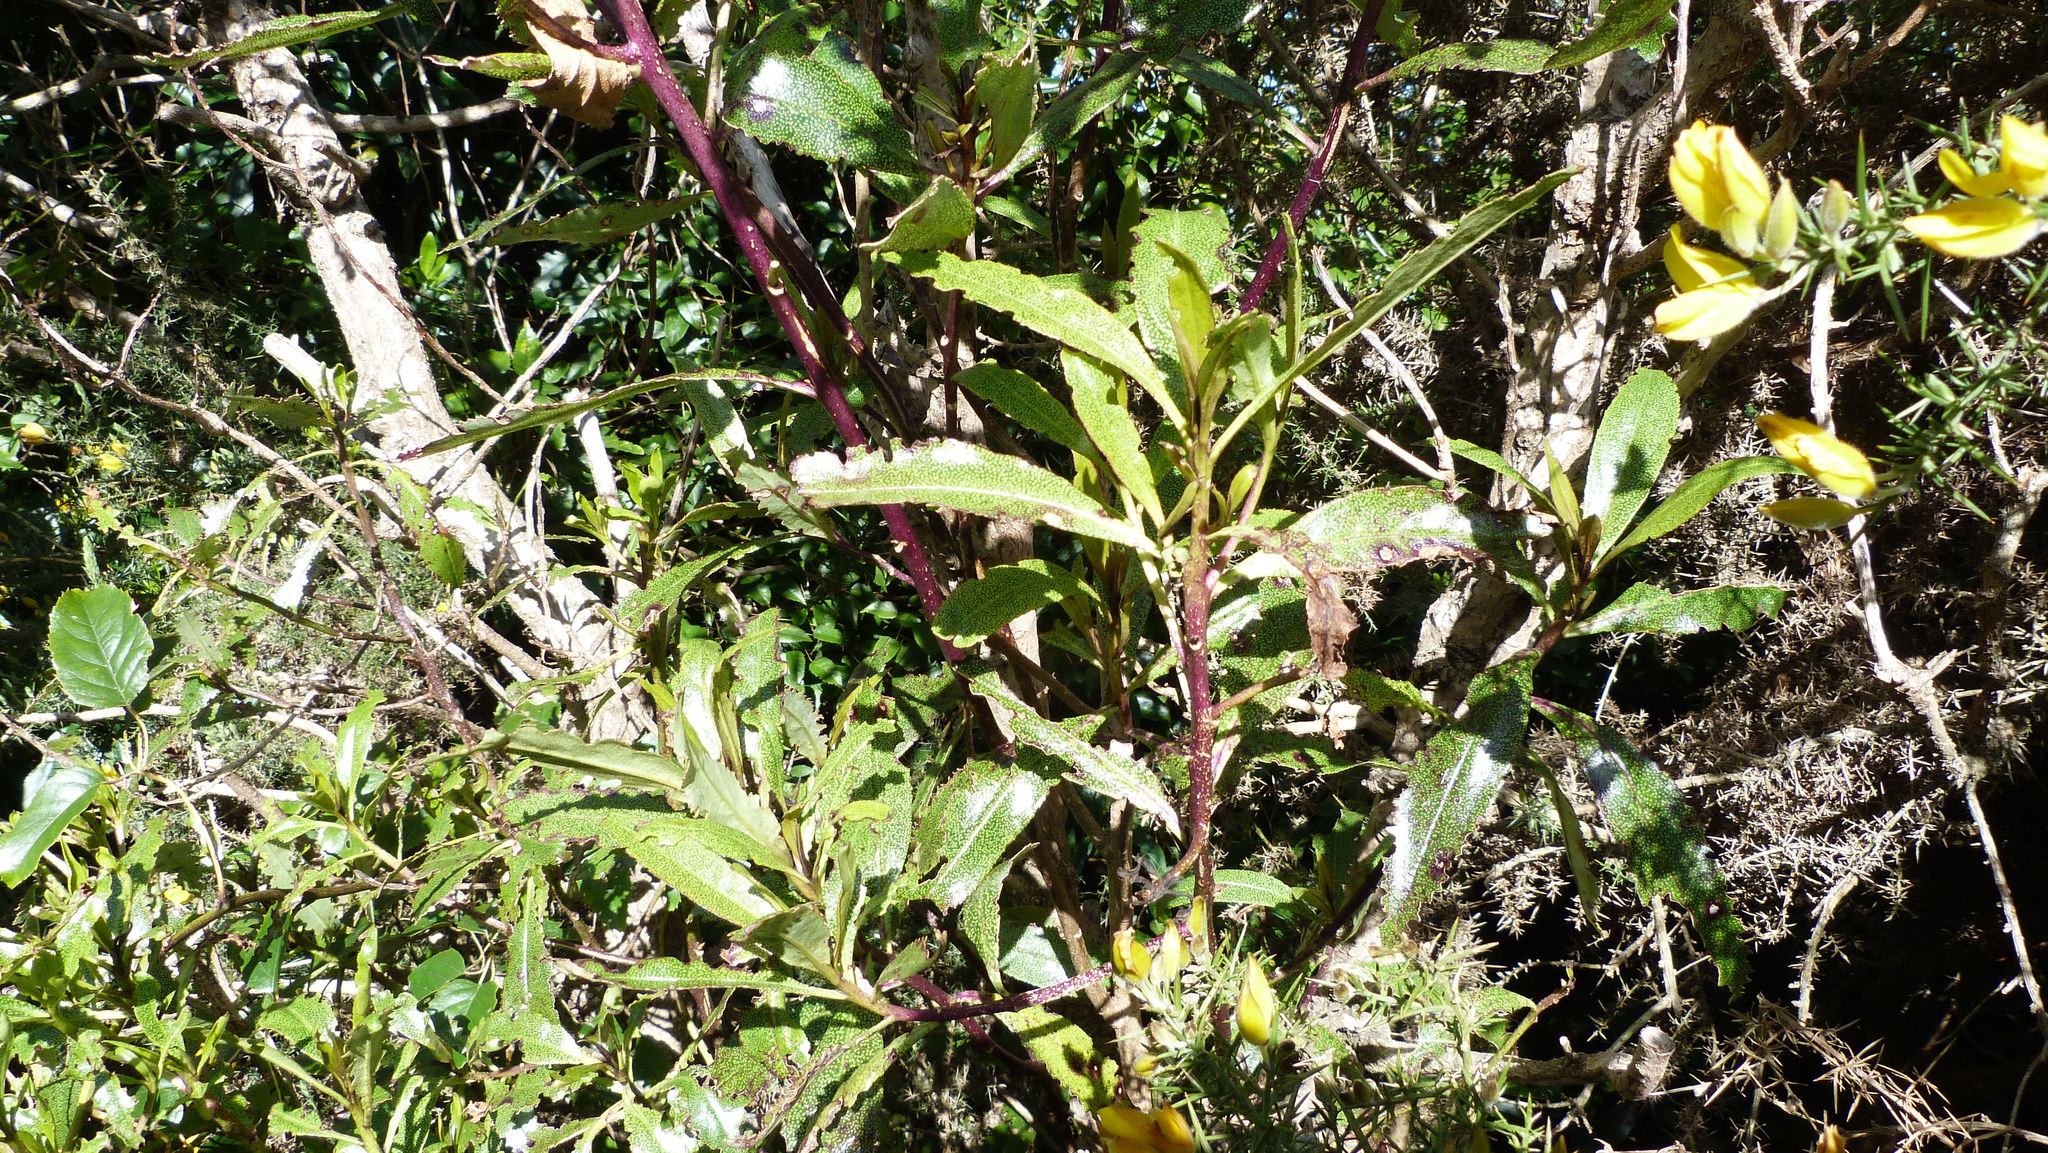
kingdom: Plantae
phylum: Tracheophyta
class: Magnoliopsida
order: Lamiales
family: Scrophulariaceae
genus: Myoporum
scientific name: Myoporum laetum
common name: Ngaio tree
